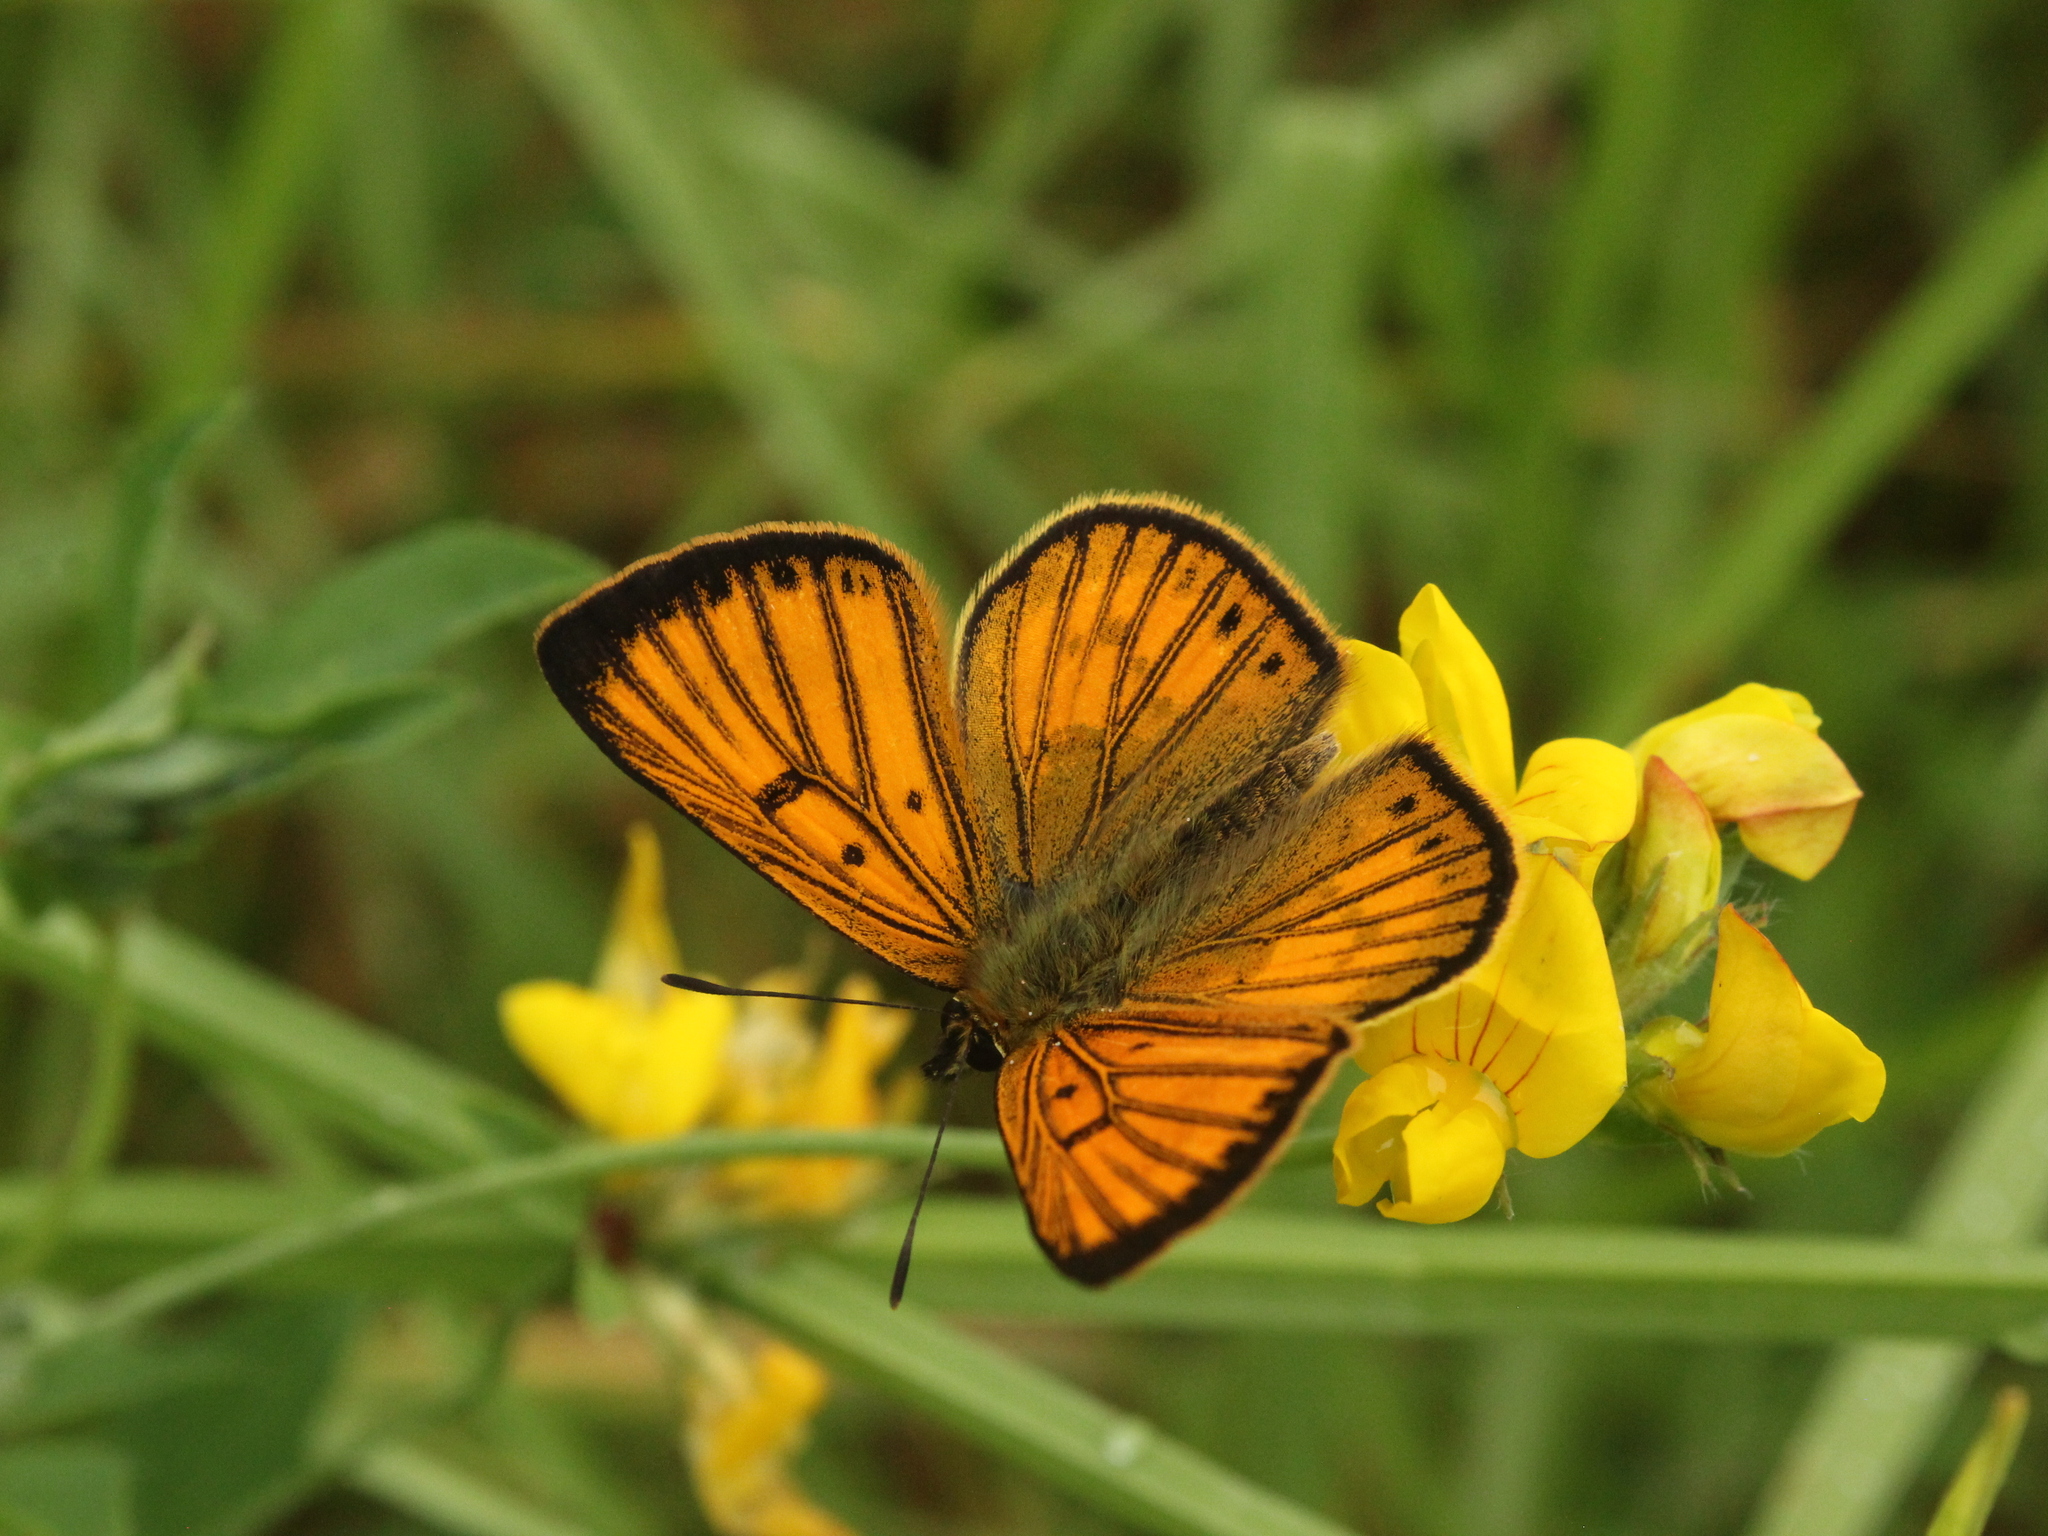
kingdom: Animalia
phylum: Arthropoda
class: Insecta
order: Lepidoptera
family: Lycaenidae
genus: Lycaena
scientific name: Lycaena salustius
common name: North island coastal copper
